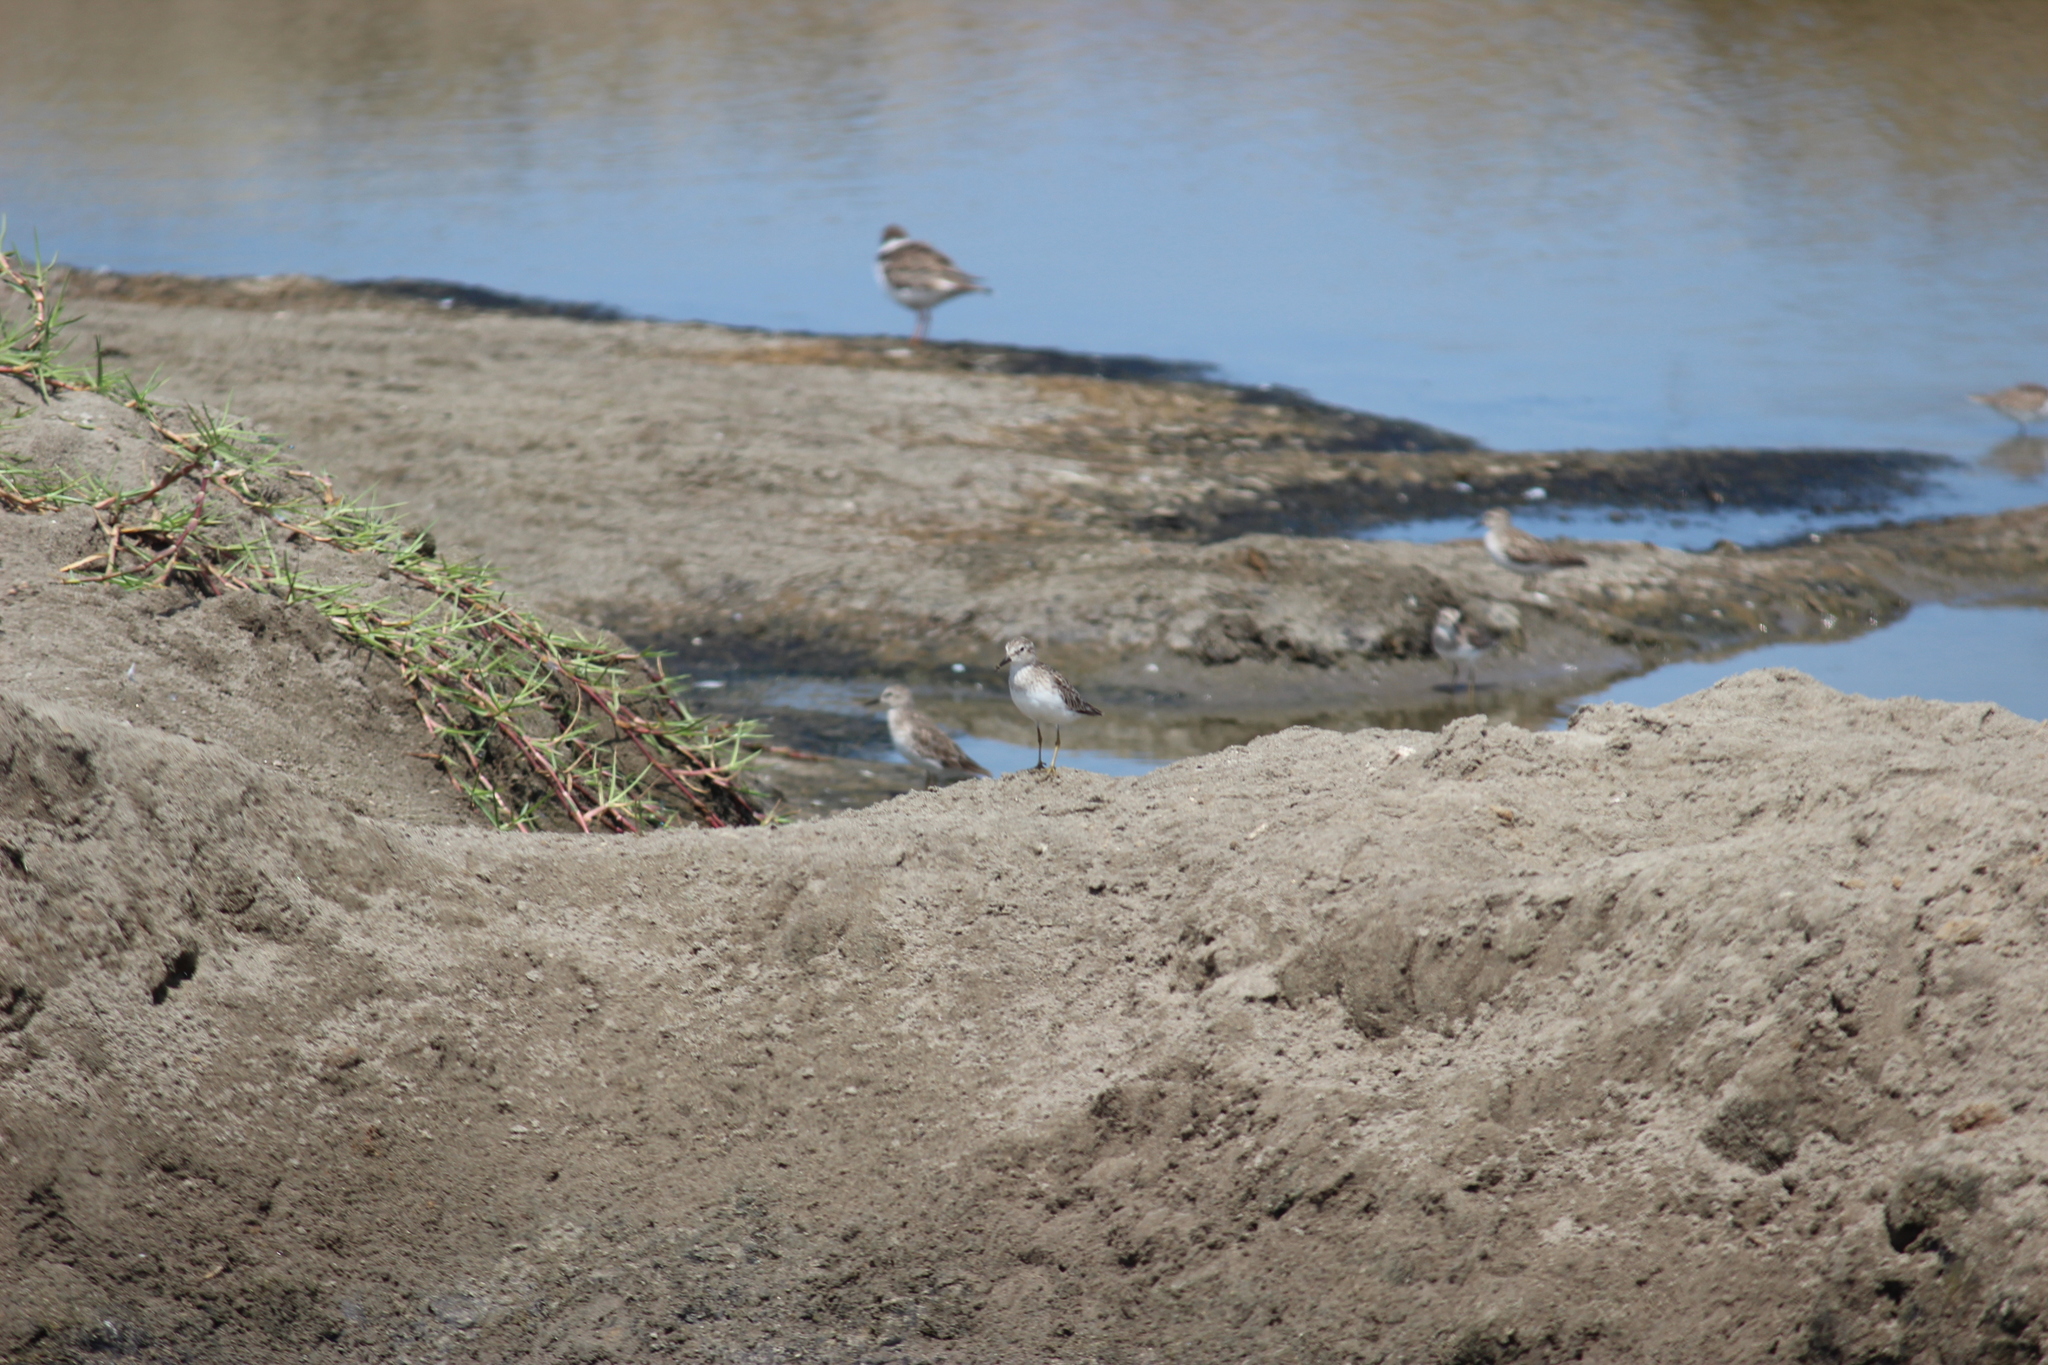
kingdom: Animalia
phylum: Chordata
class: Aves
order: Charadriiformes
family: Scolopacidae
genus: Calidris
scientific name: Calidris minutilla
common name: Least sandpiper
